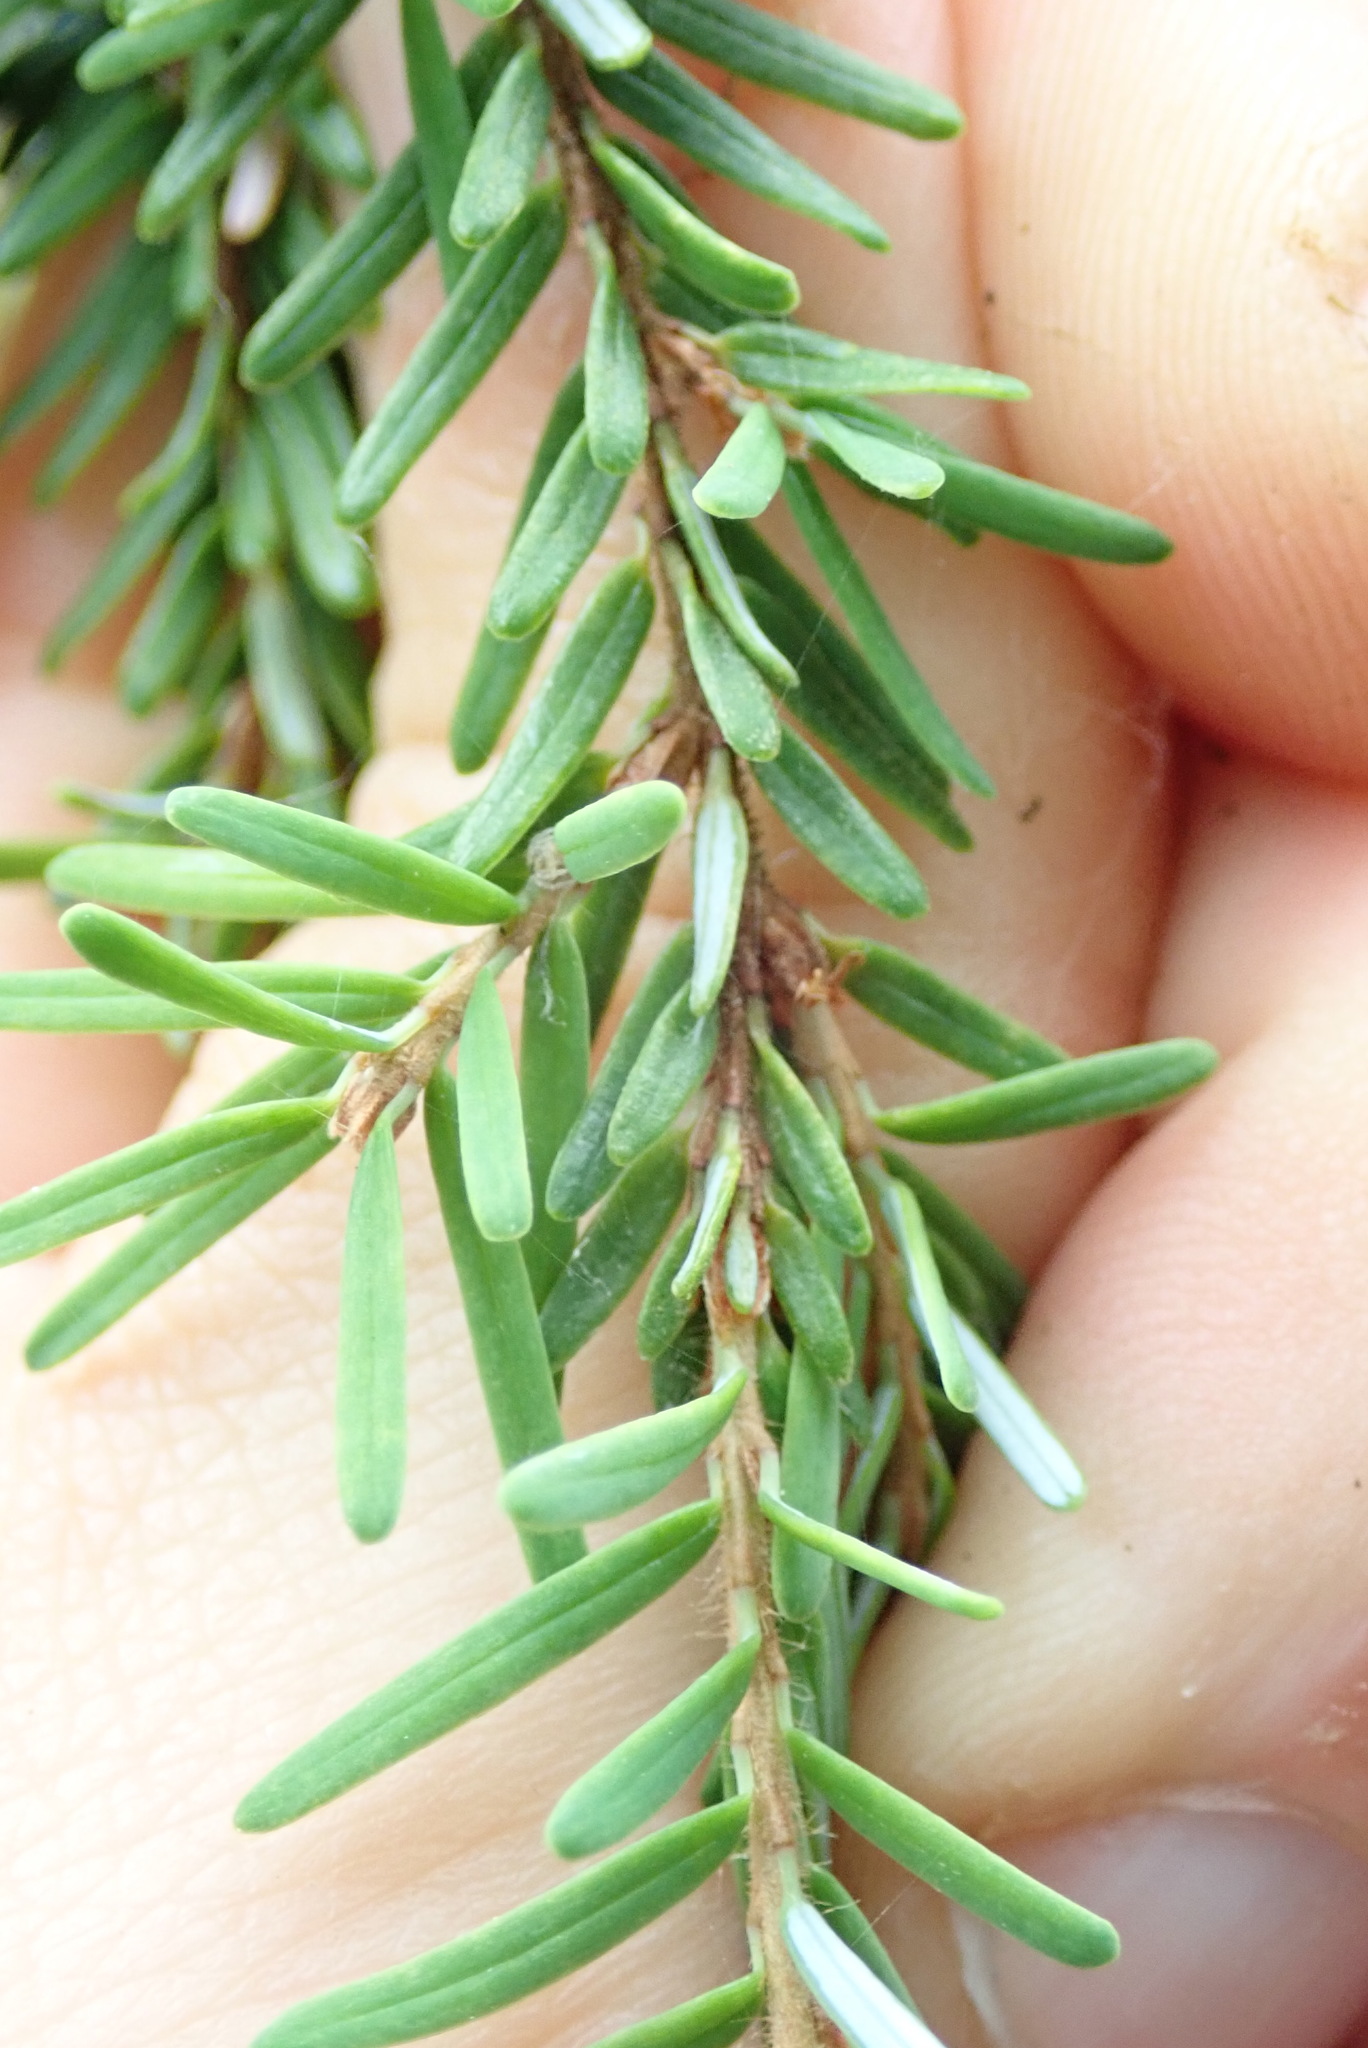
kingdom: Plantae
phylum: Tracheophyta
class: Pinopsida
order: Pinales
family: Pinaceae
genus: Tsuga
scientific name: Tsuga heterophylla
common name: Western hemlock
